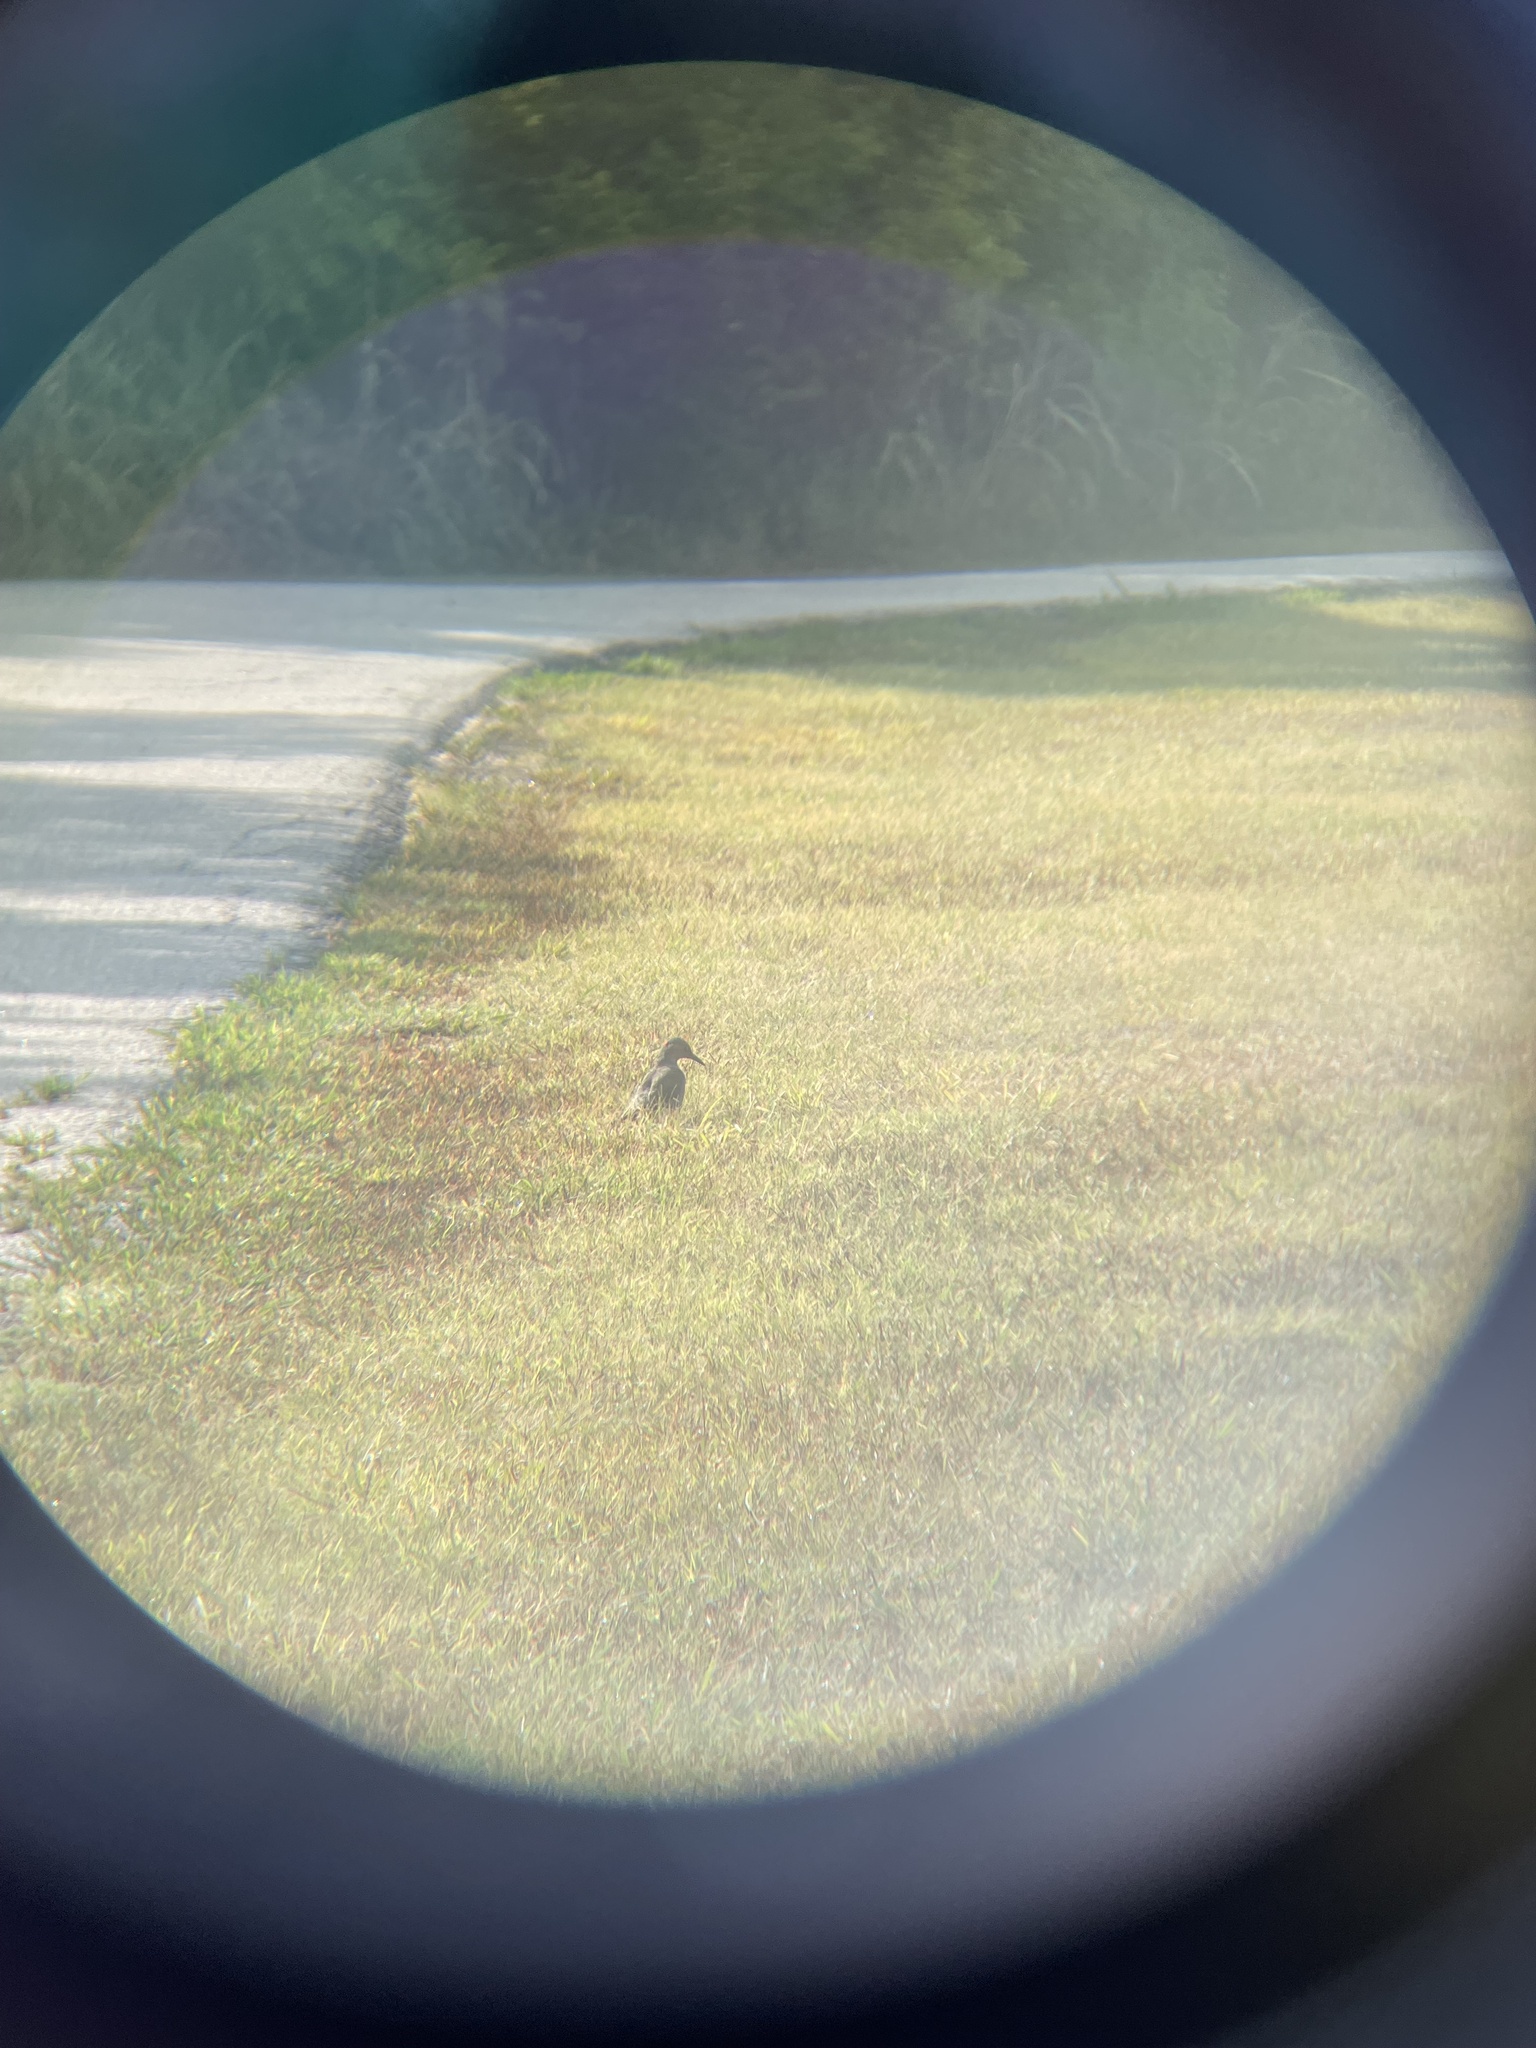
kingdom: Animalia
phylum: Chordata
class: Aves
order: Piciformes
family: Picidae
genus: Colaptes
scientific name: Colaptes auratus
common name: Northern flicker
